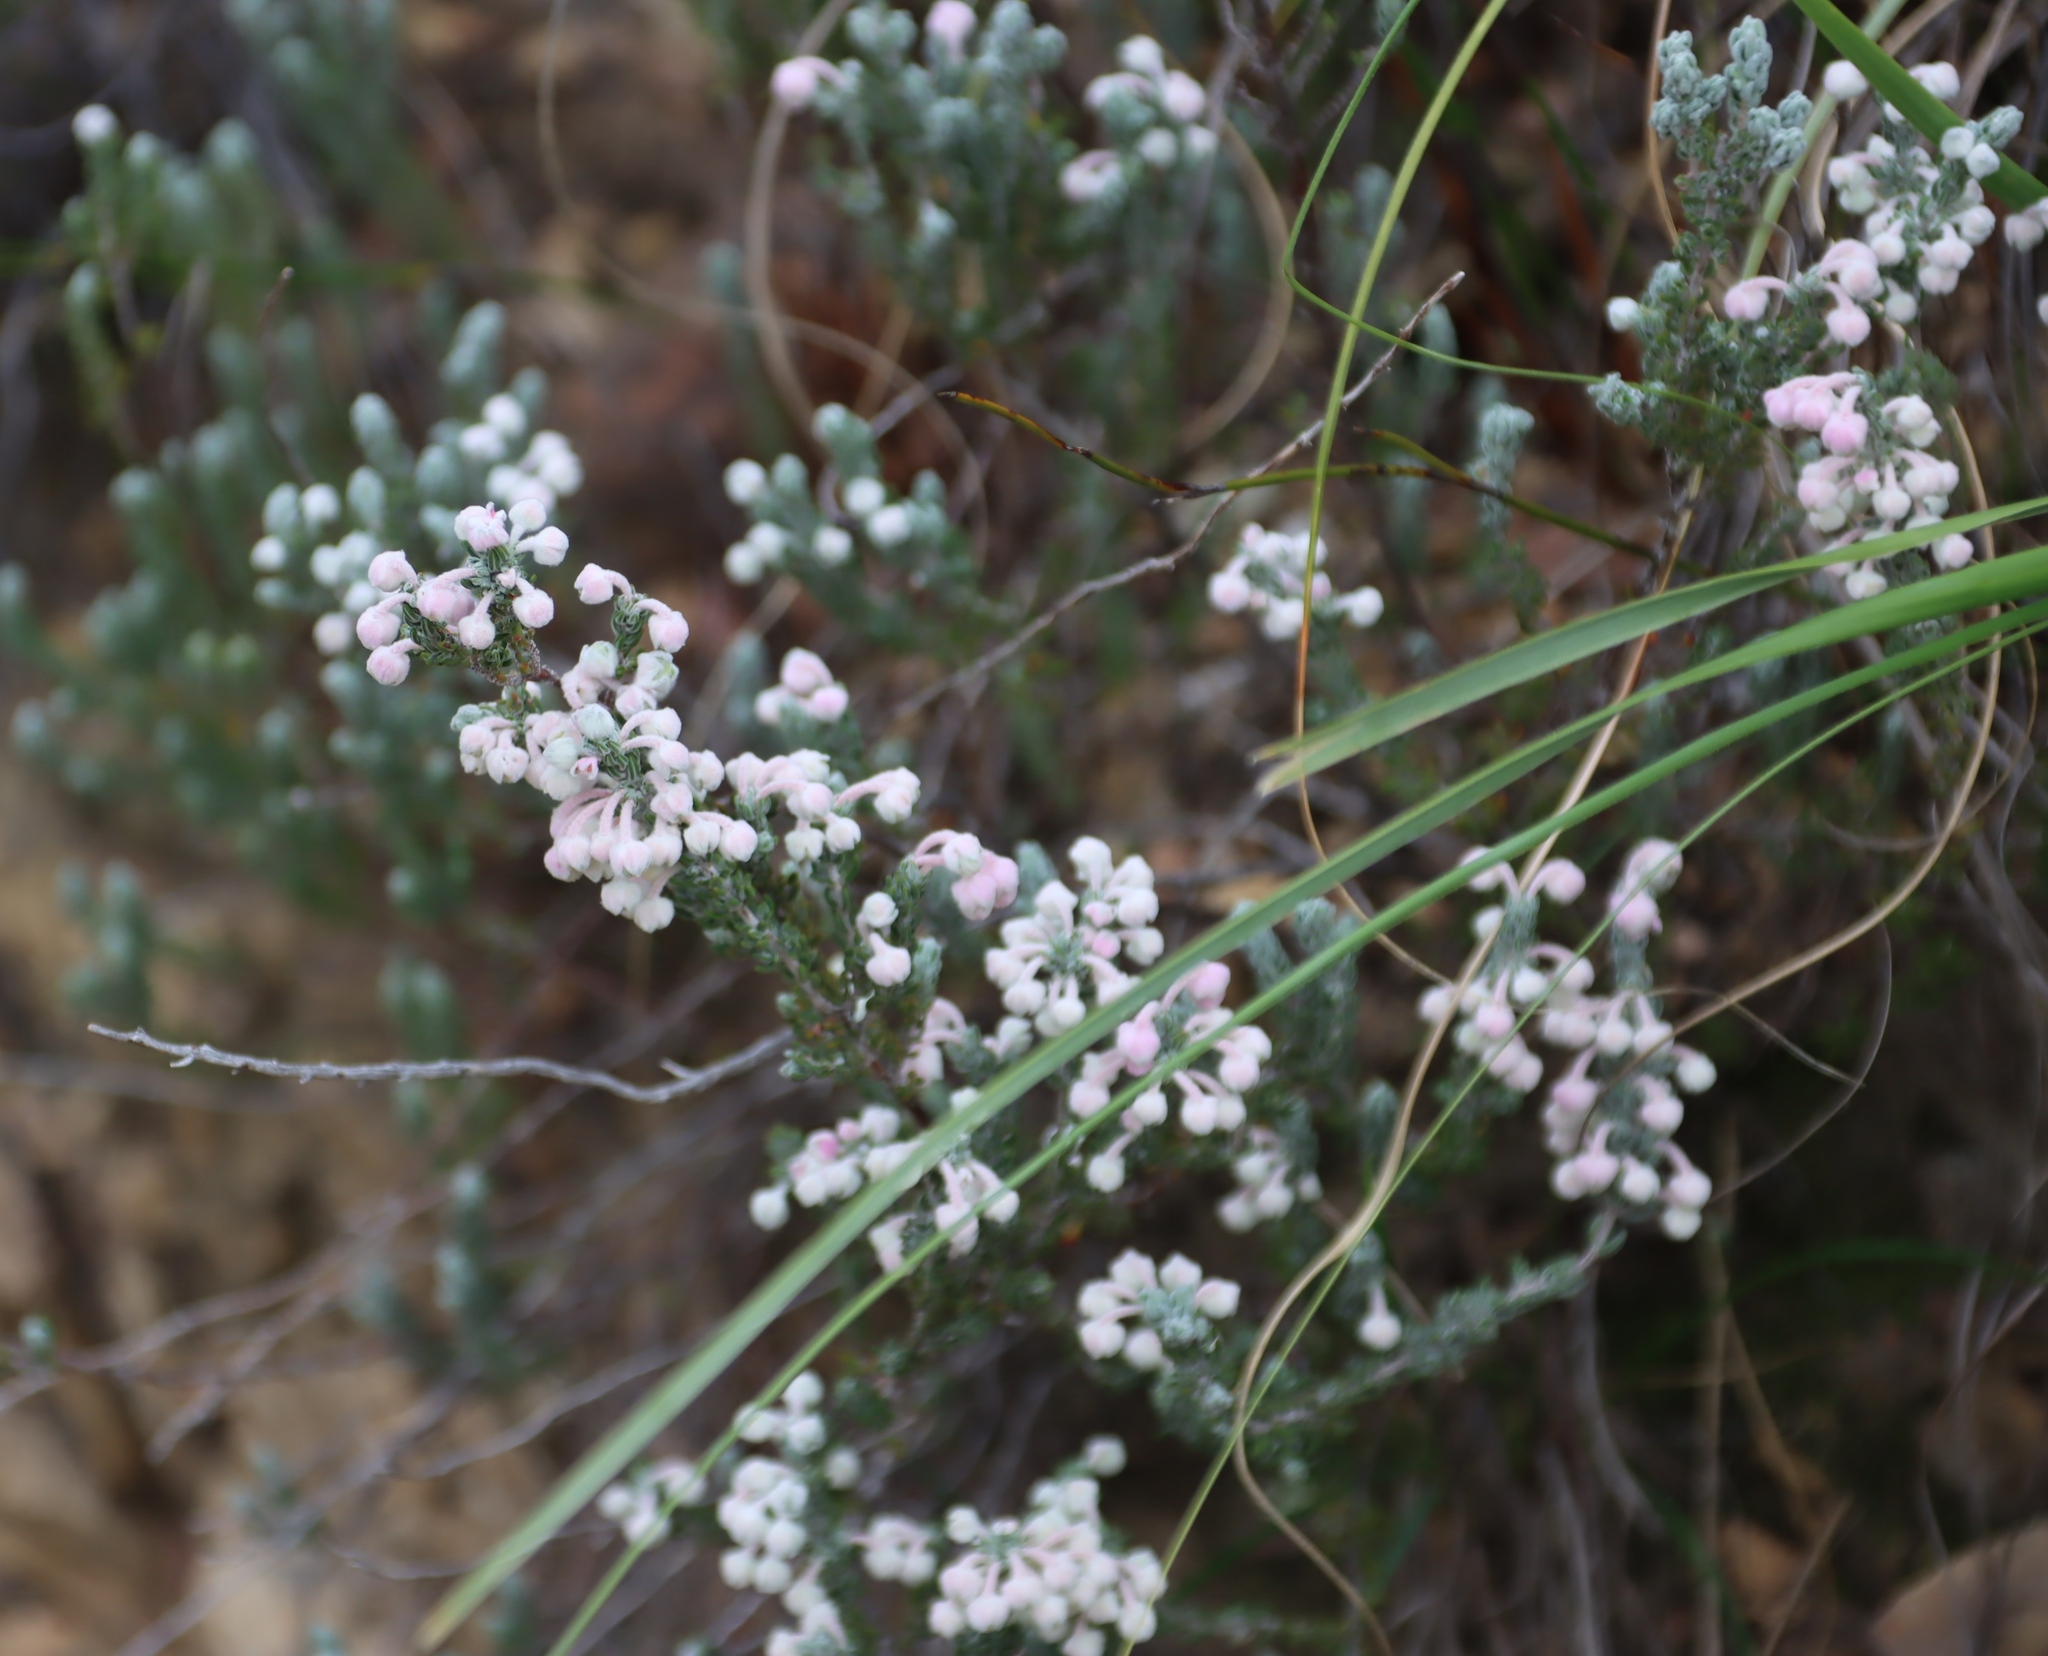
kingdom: Plantae
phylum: Tracheophyta
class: Magnoliopsida
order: Ericales
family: Ericaceae
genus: Erica
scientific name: Erica passerina
